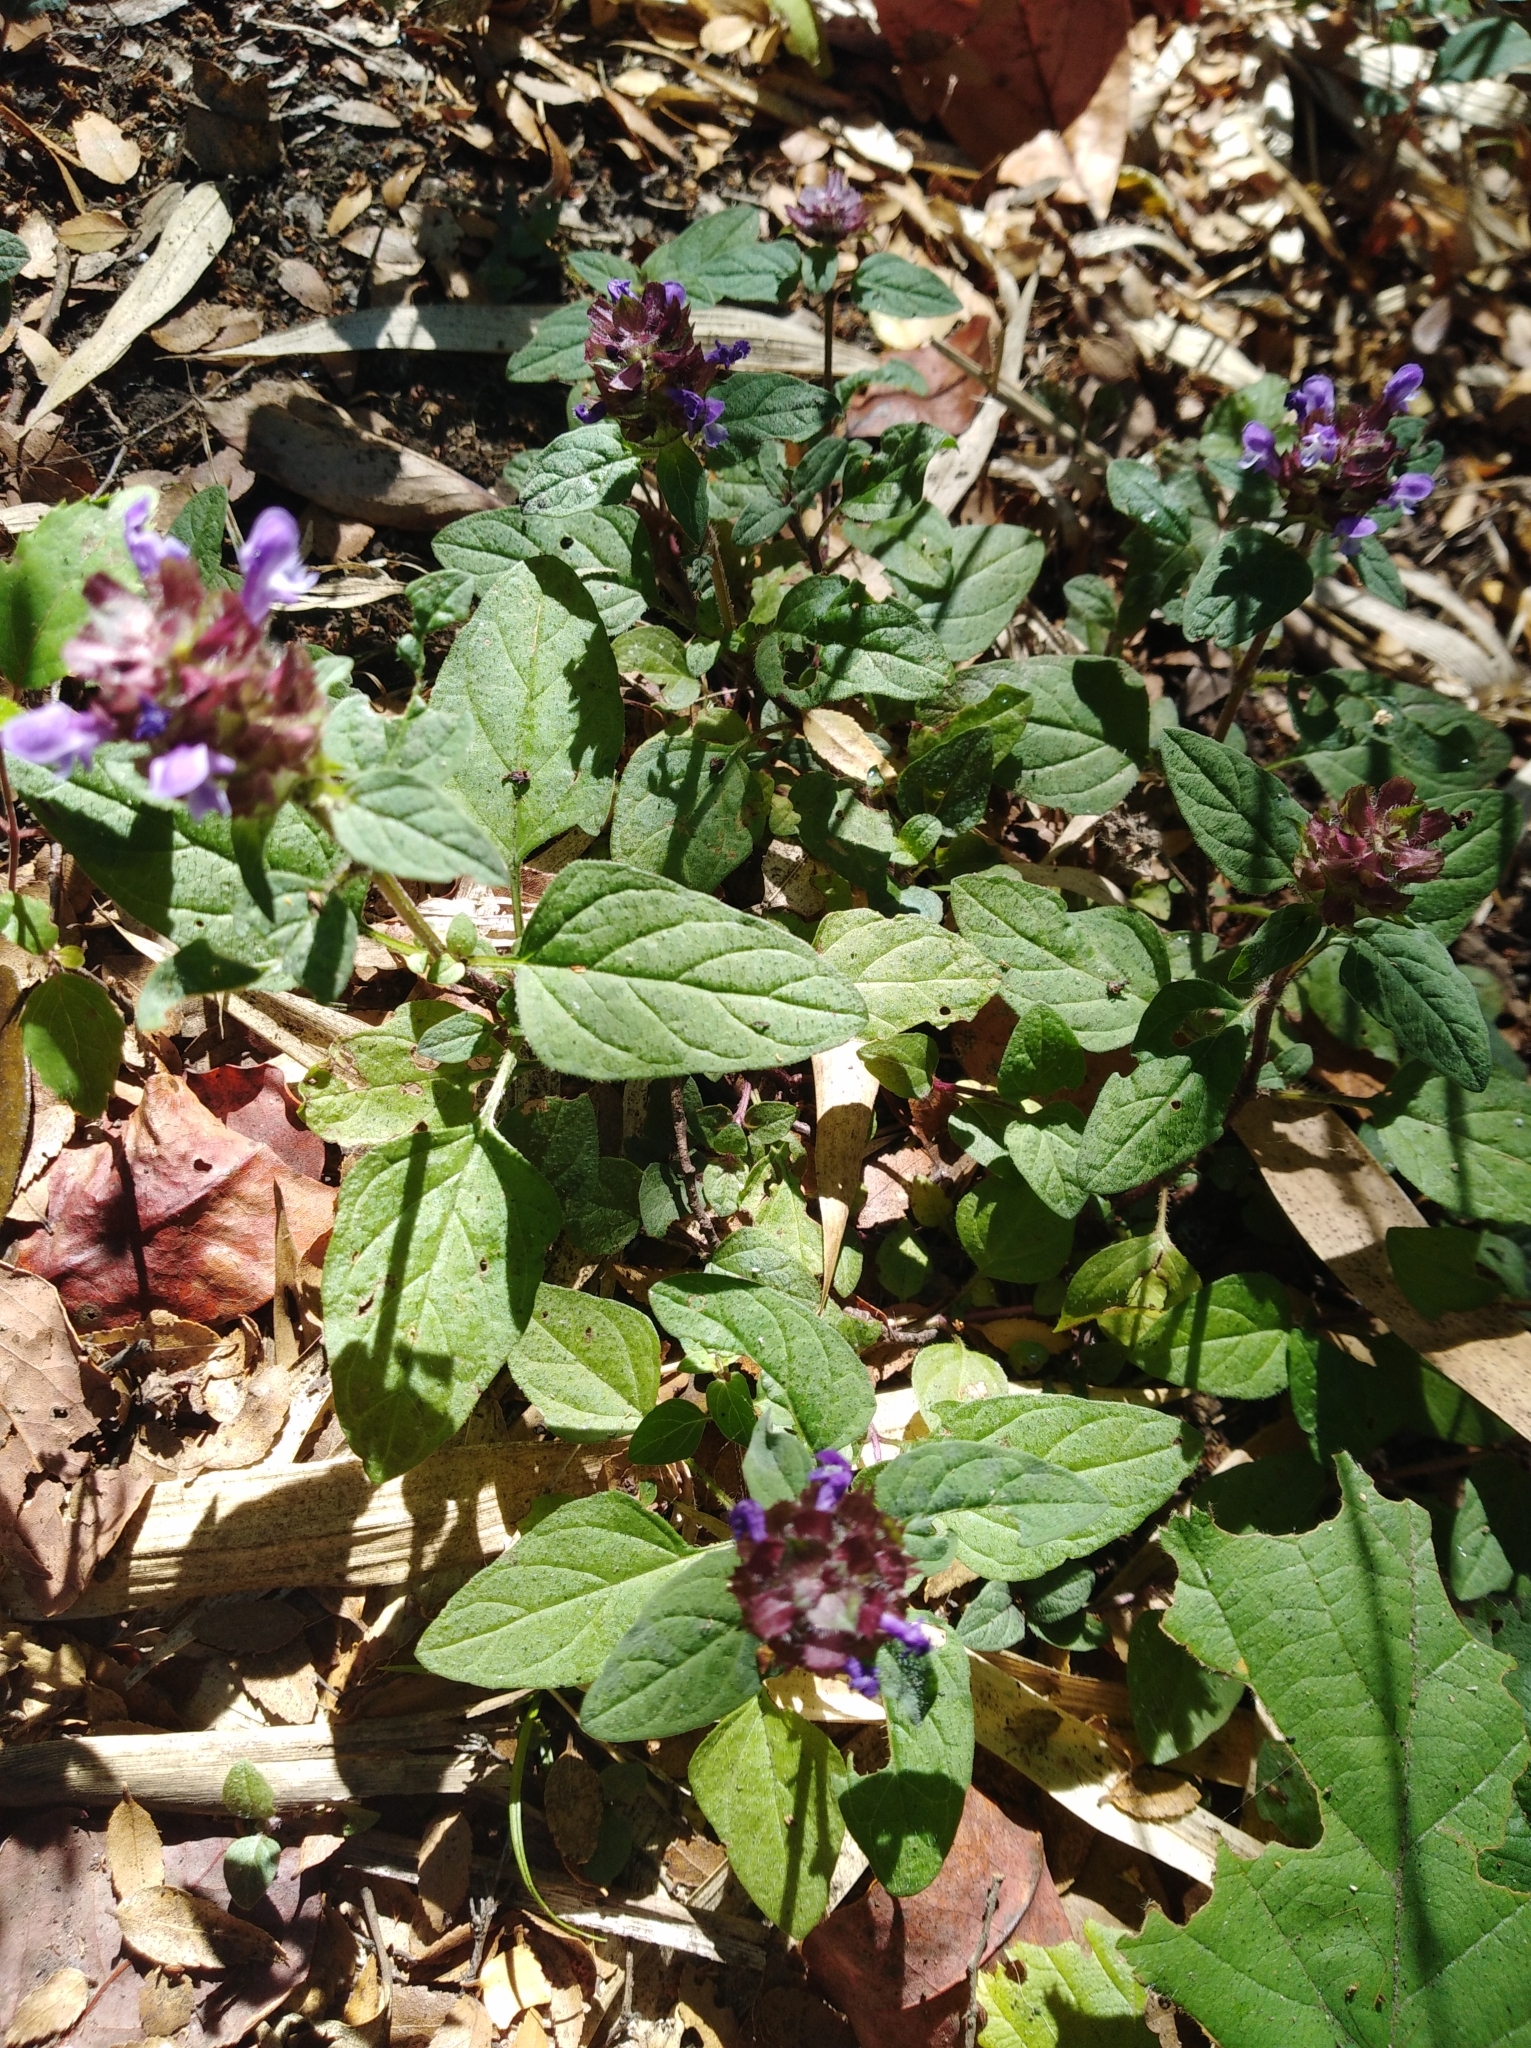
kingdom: Plantae
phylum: Tracheophyta
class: Magnoliopsida
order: Lamiales
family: Lamiaceae
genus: Prunella
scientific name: Prunella vulgaris
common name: Heal-all
